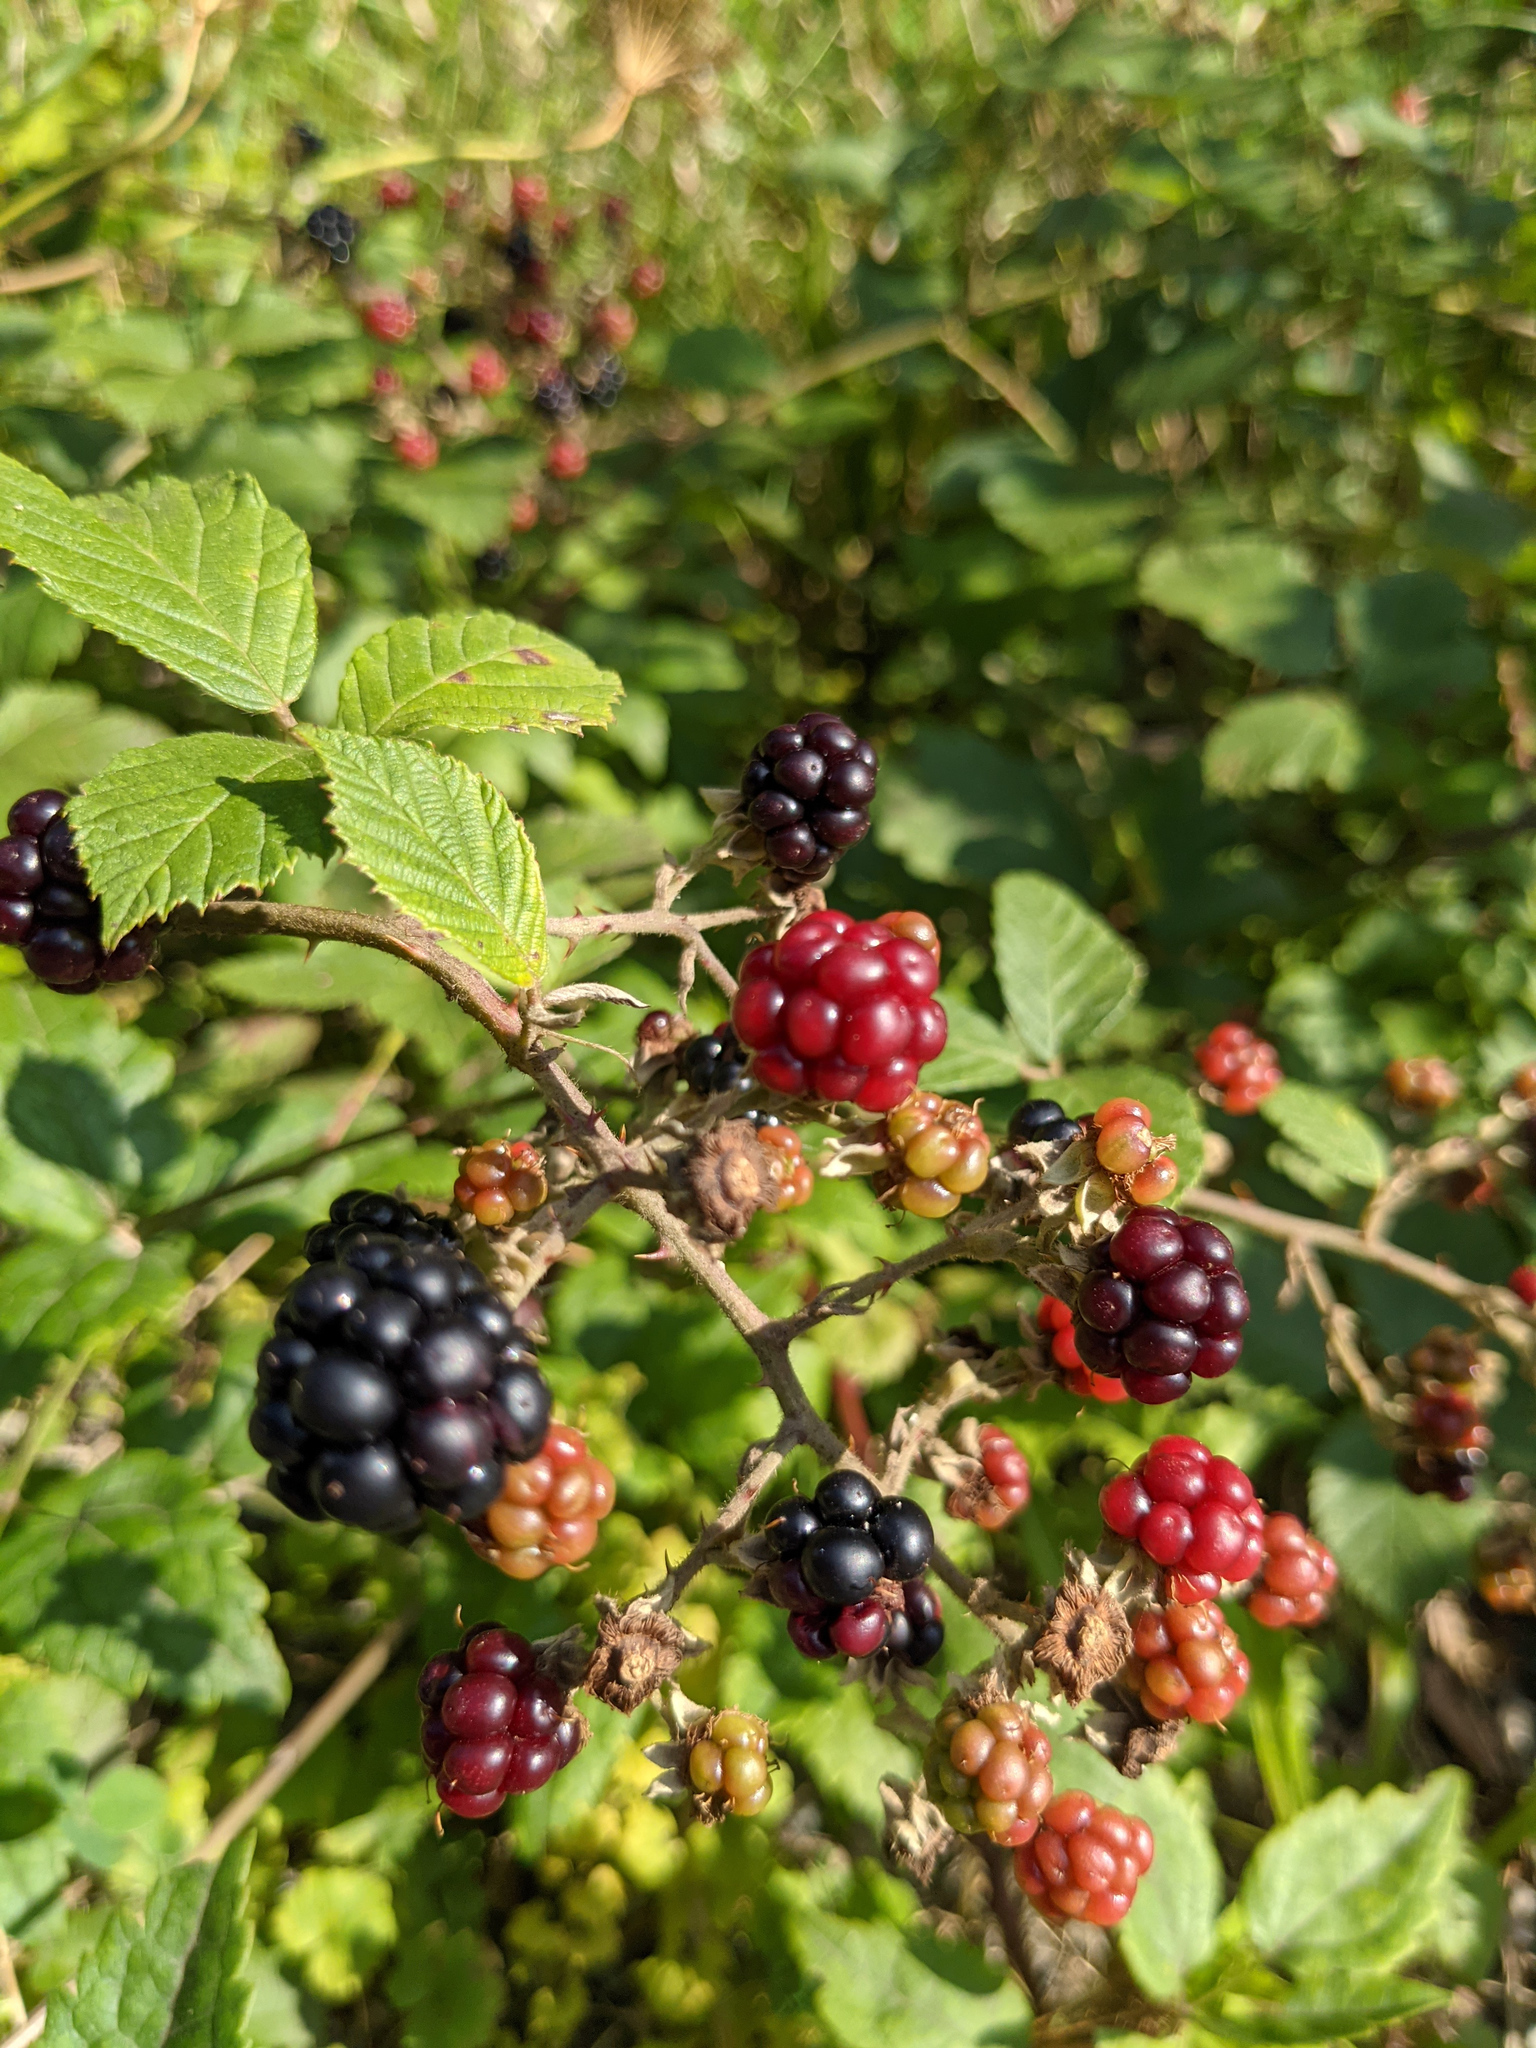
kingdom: Plantae
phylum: Tracheophyta
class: Magnoliopsida
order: Rosales
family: Rosaceae
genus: Rubus
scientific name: Rubus
